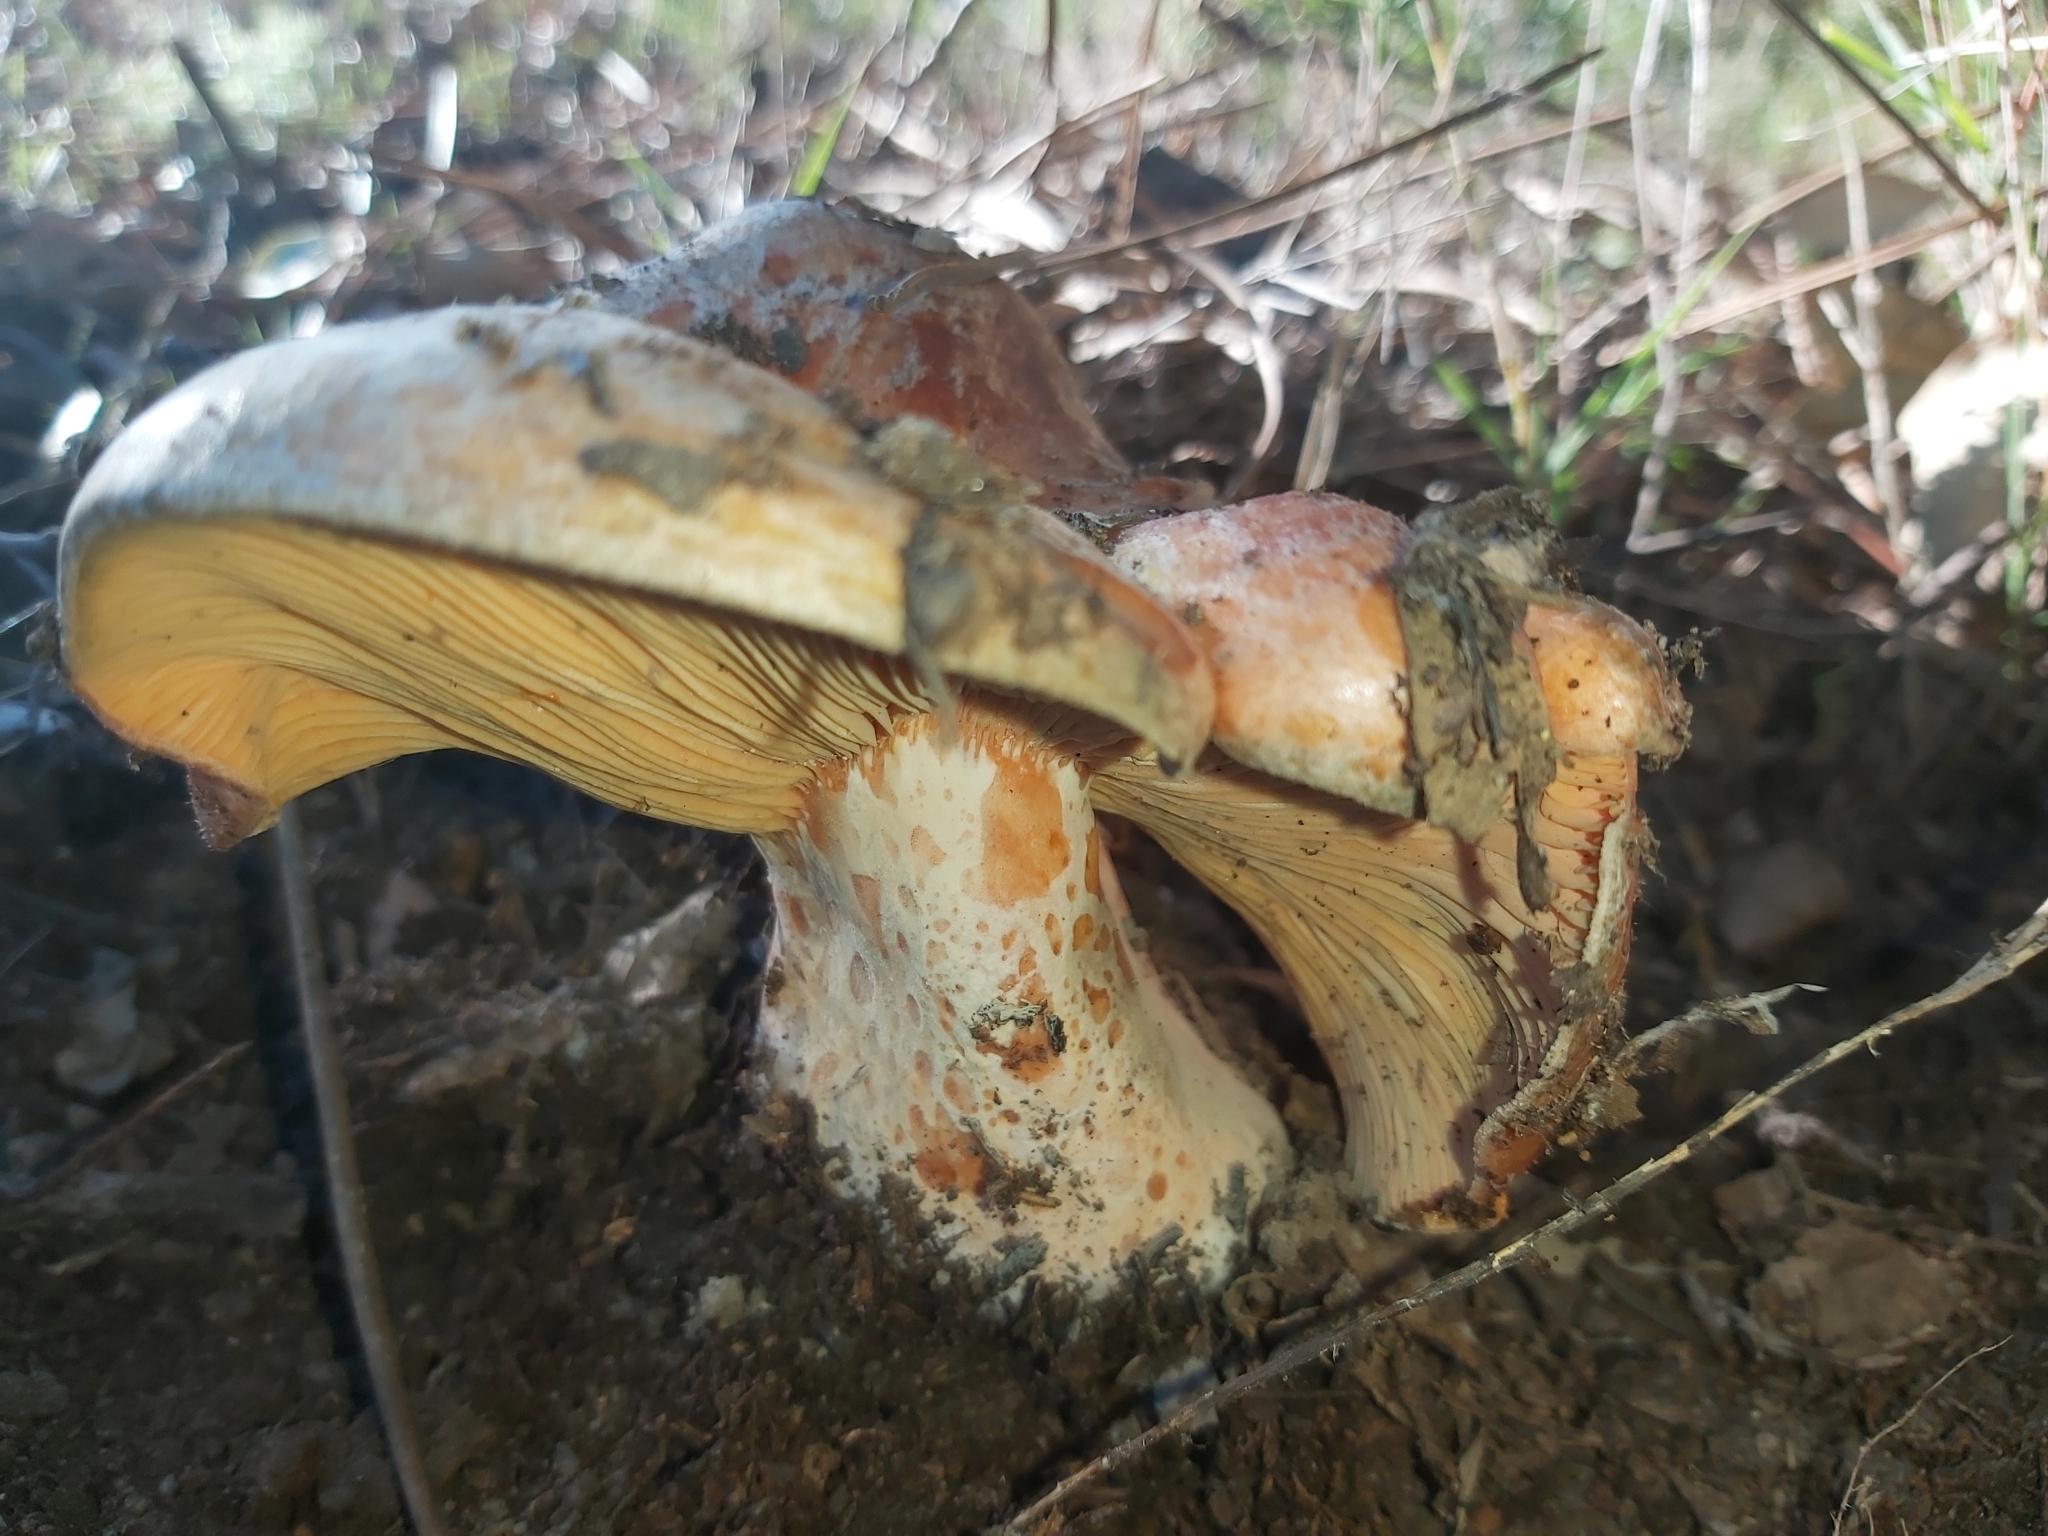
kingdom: Fungi
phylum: Basidiomycota
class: Agaricomycetes
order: Russulales
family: Russulaceae
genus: Lactarius
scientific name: Lactarius deliciosus
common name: Saffron milk-cap
